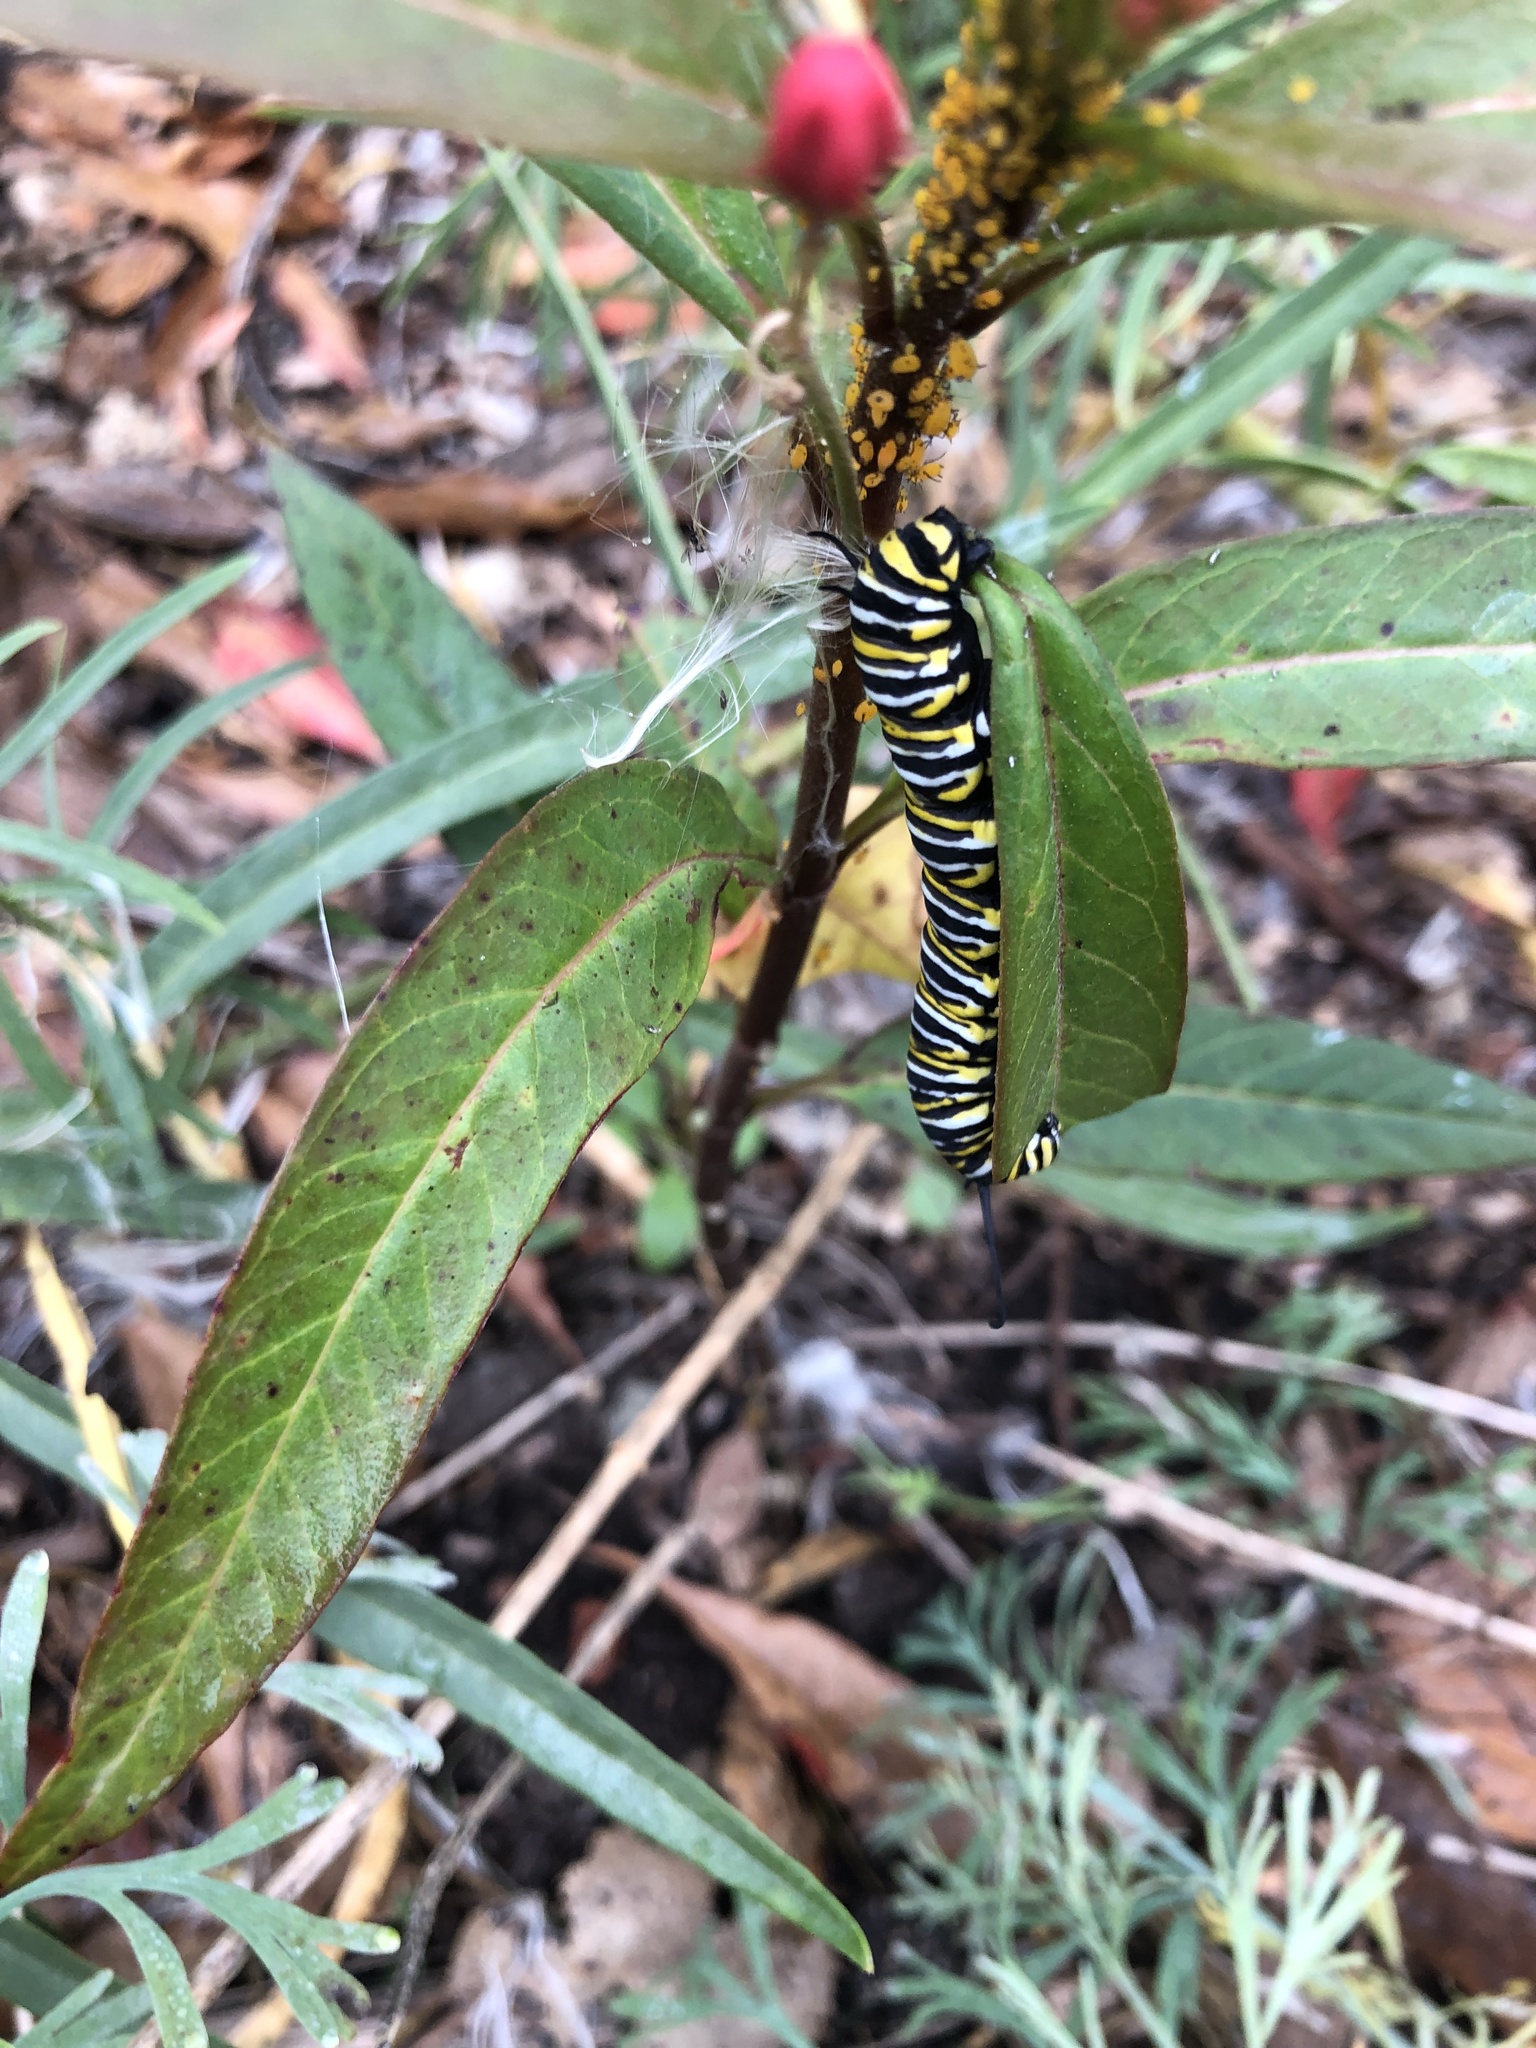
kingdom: Animalia
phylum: Arthropoda
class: Insecta
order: Lepidoptera
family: Nymphalidae
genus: Danaus
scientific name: Danaus plexippus
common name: Monarch
